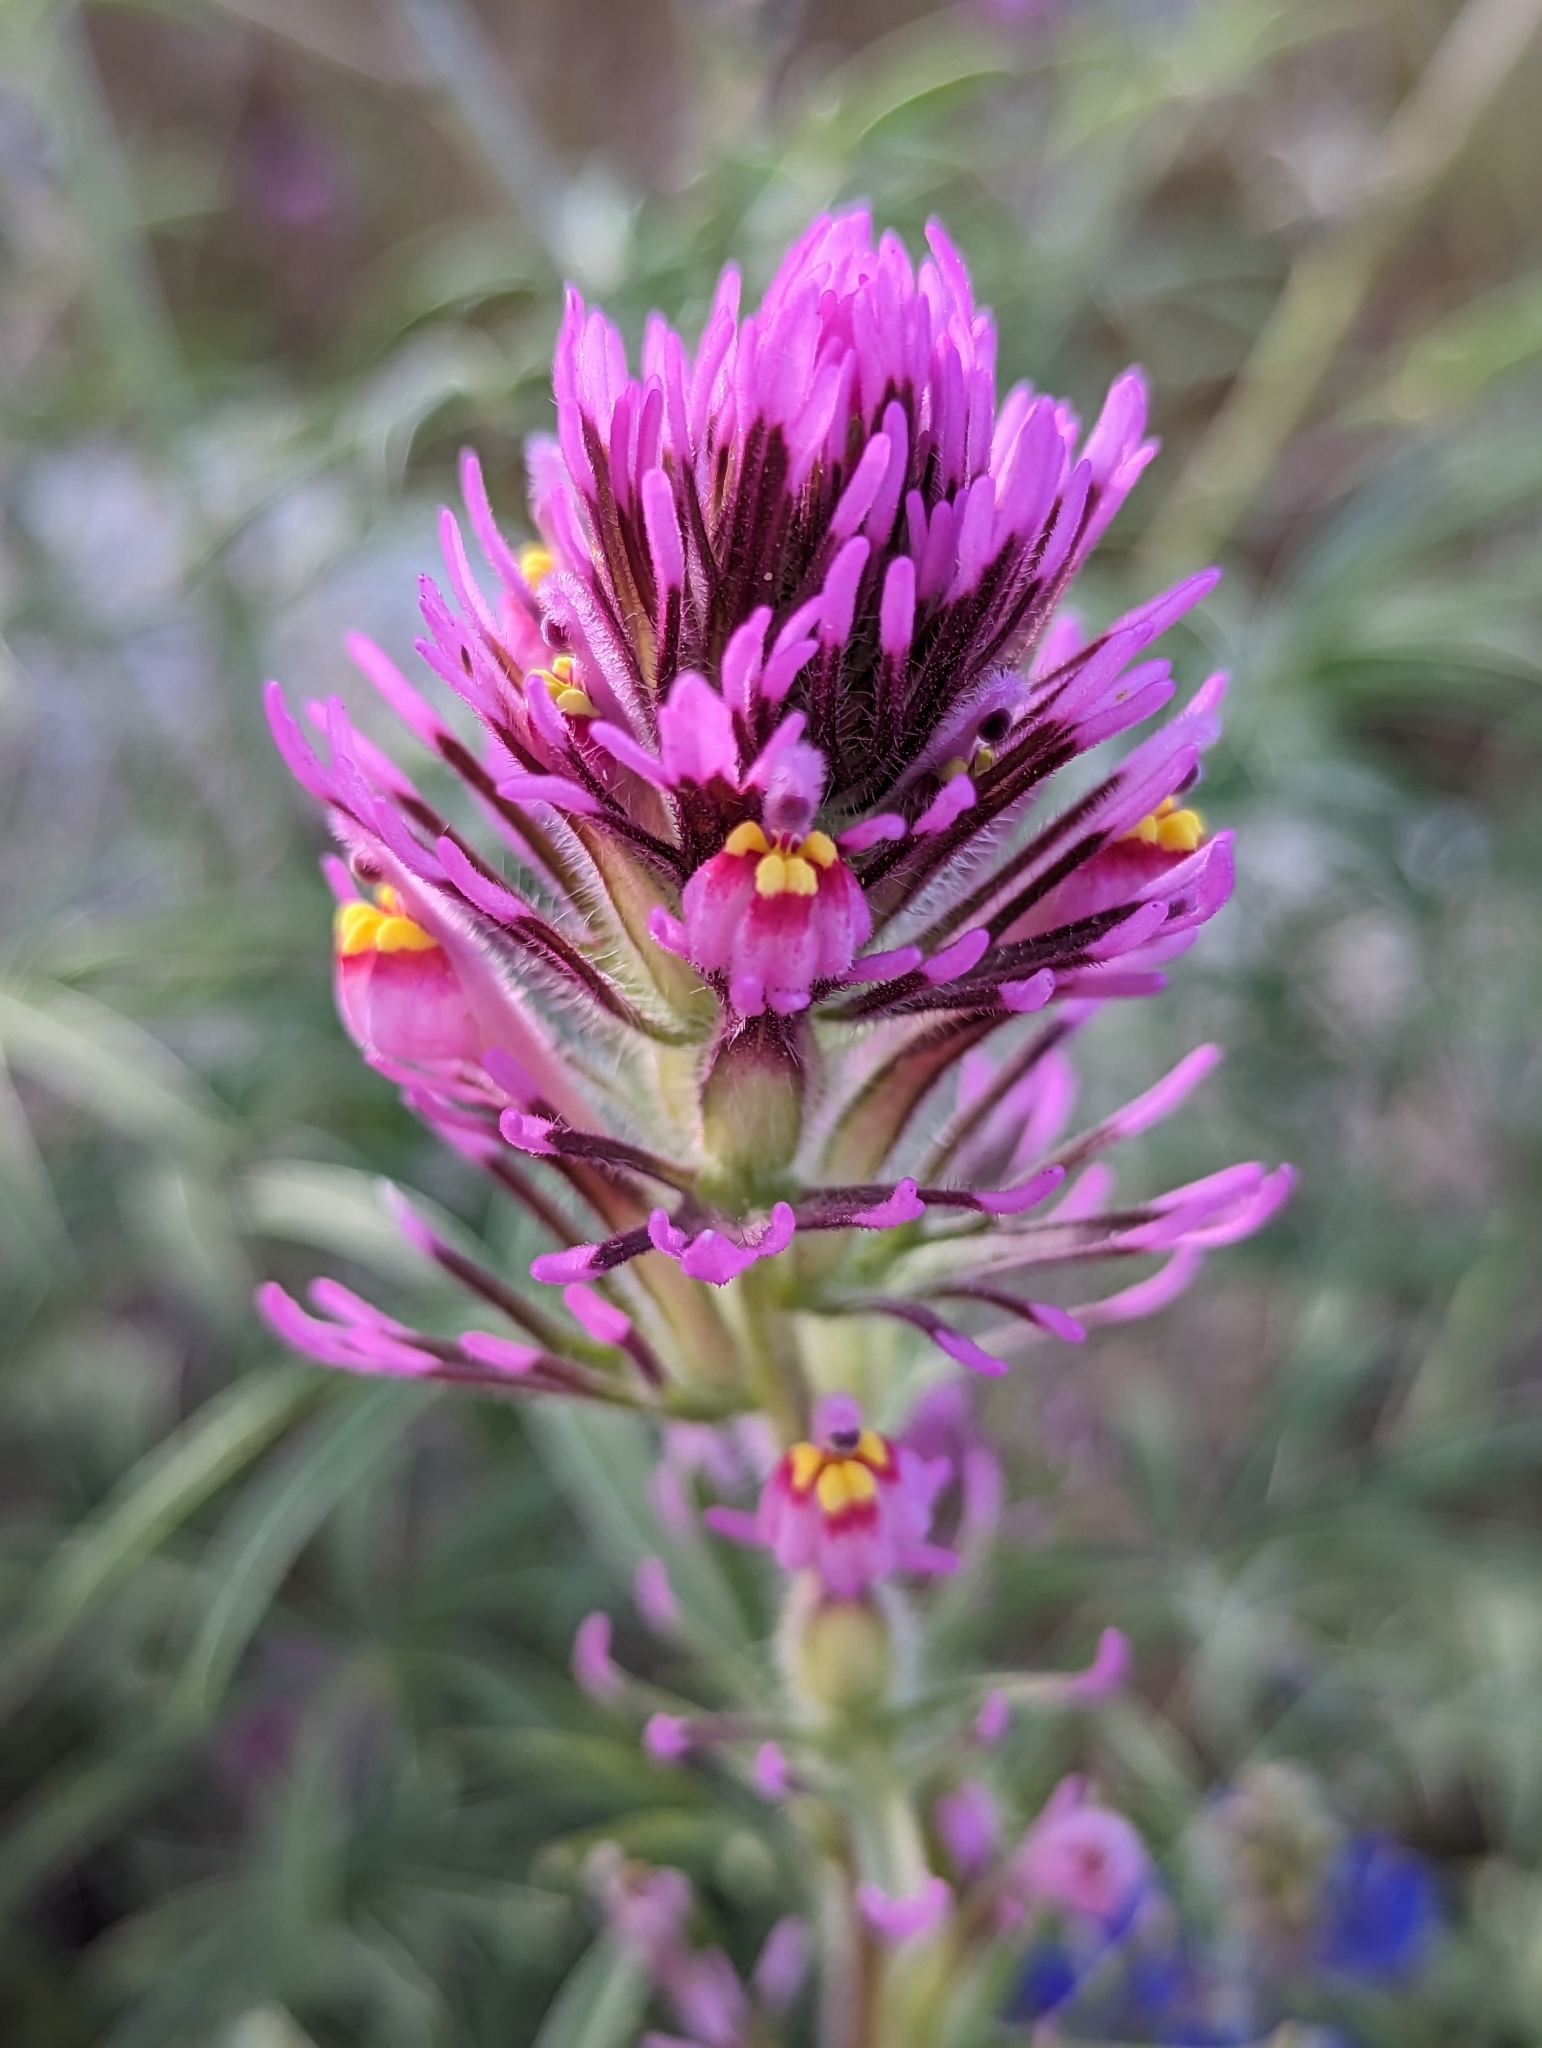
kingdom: Plantae
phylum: Tracheophyta
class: Magnoliopsida
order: Lamiales
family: Orobanchaceae
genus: Castilleja
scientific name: Castilleja exserta
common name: Purple owl-clover
